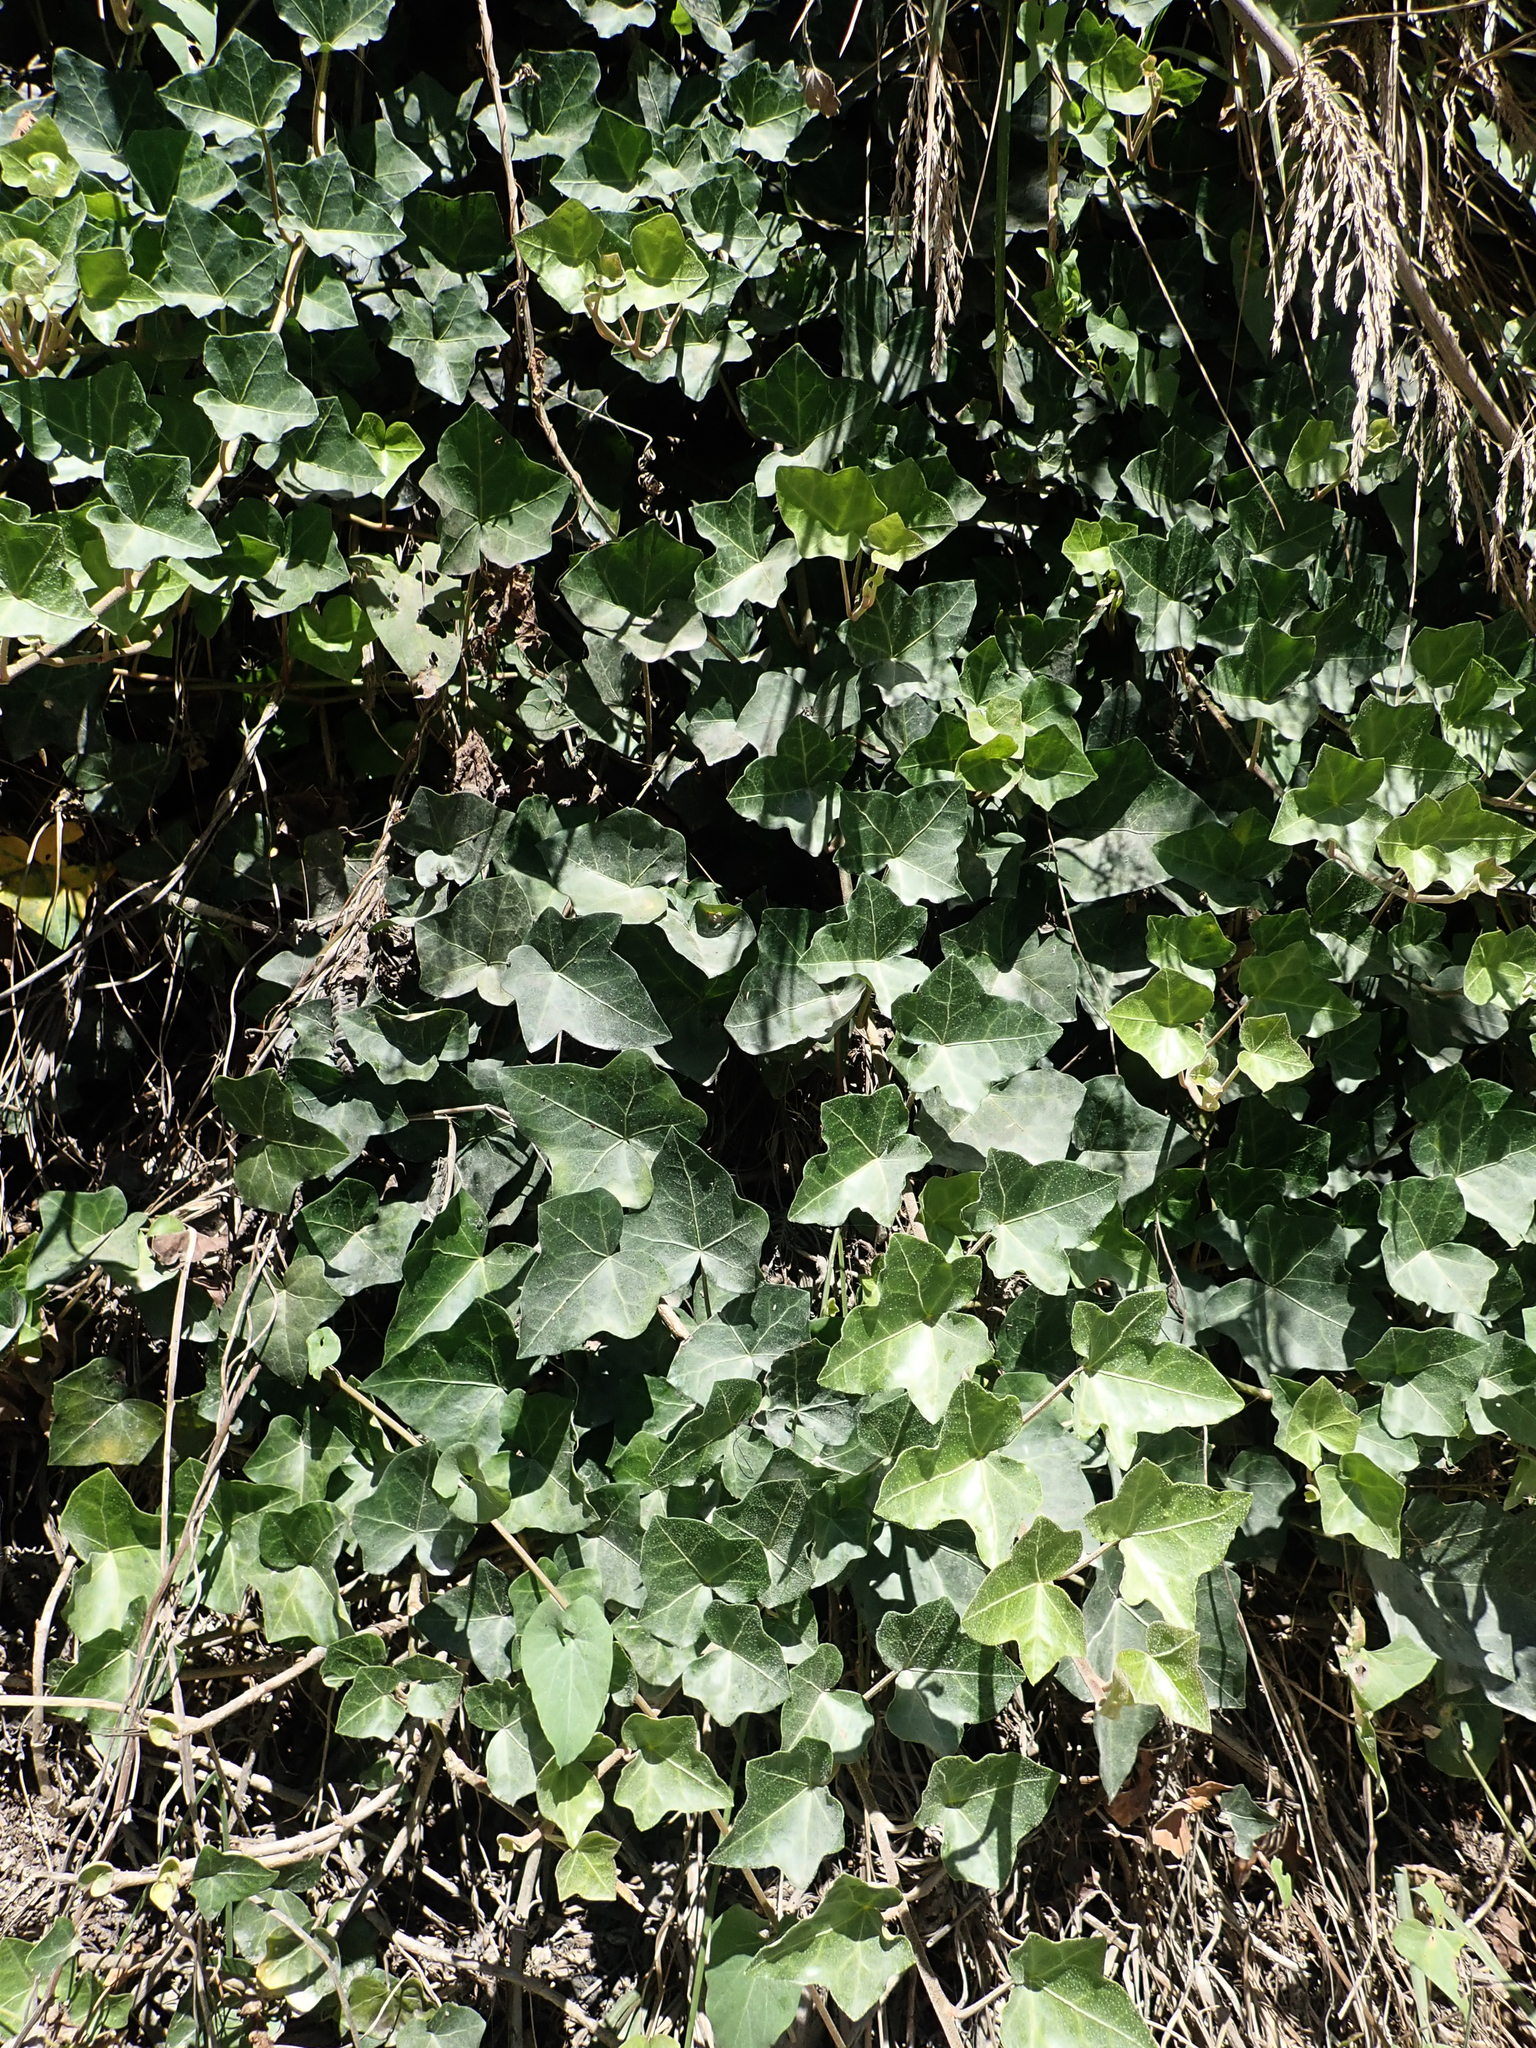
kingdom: Plantae
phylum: Tracheophyta
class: Magnoliopsida
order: Apiales
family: Araliaceae
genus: Hedera
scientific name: Hedera helix
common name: Ivy
